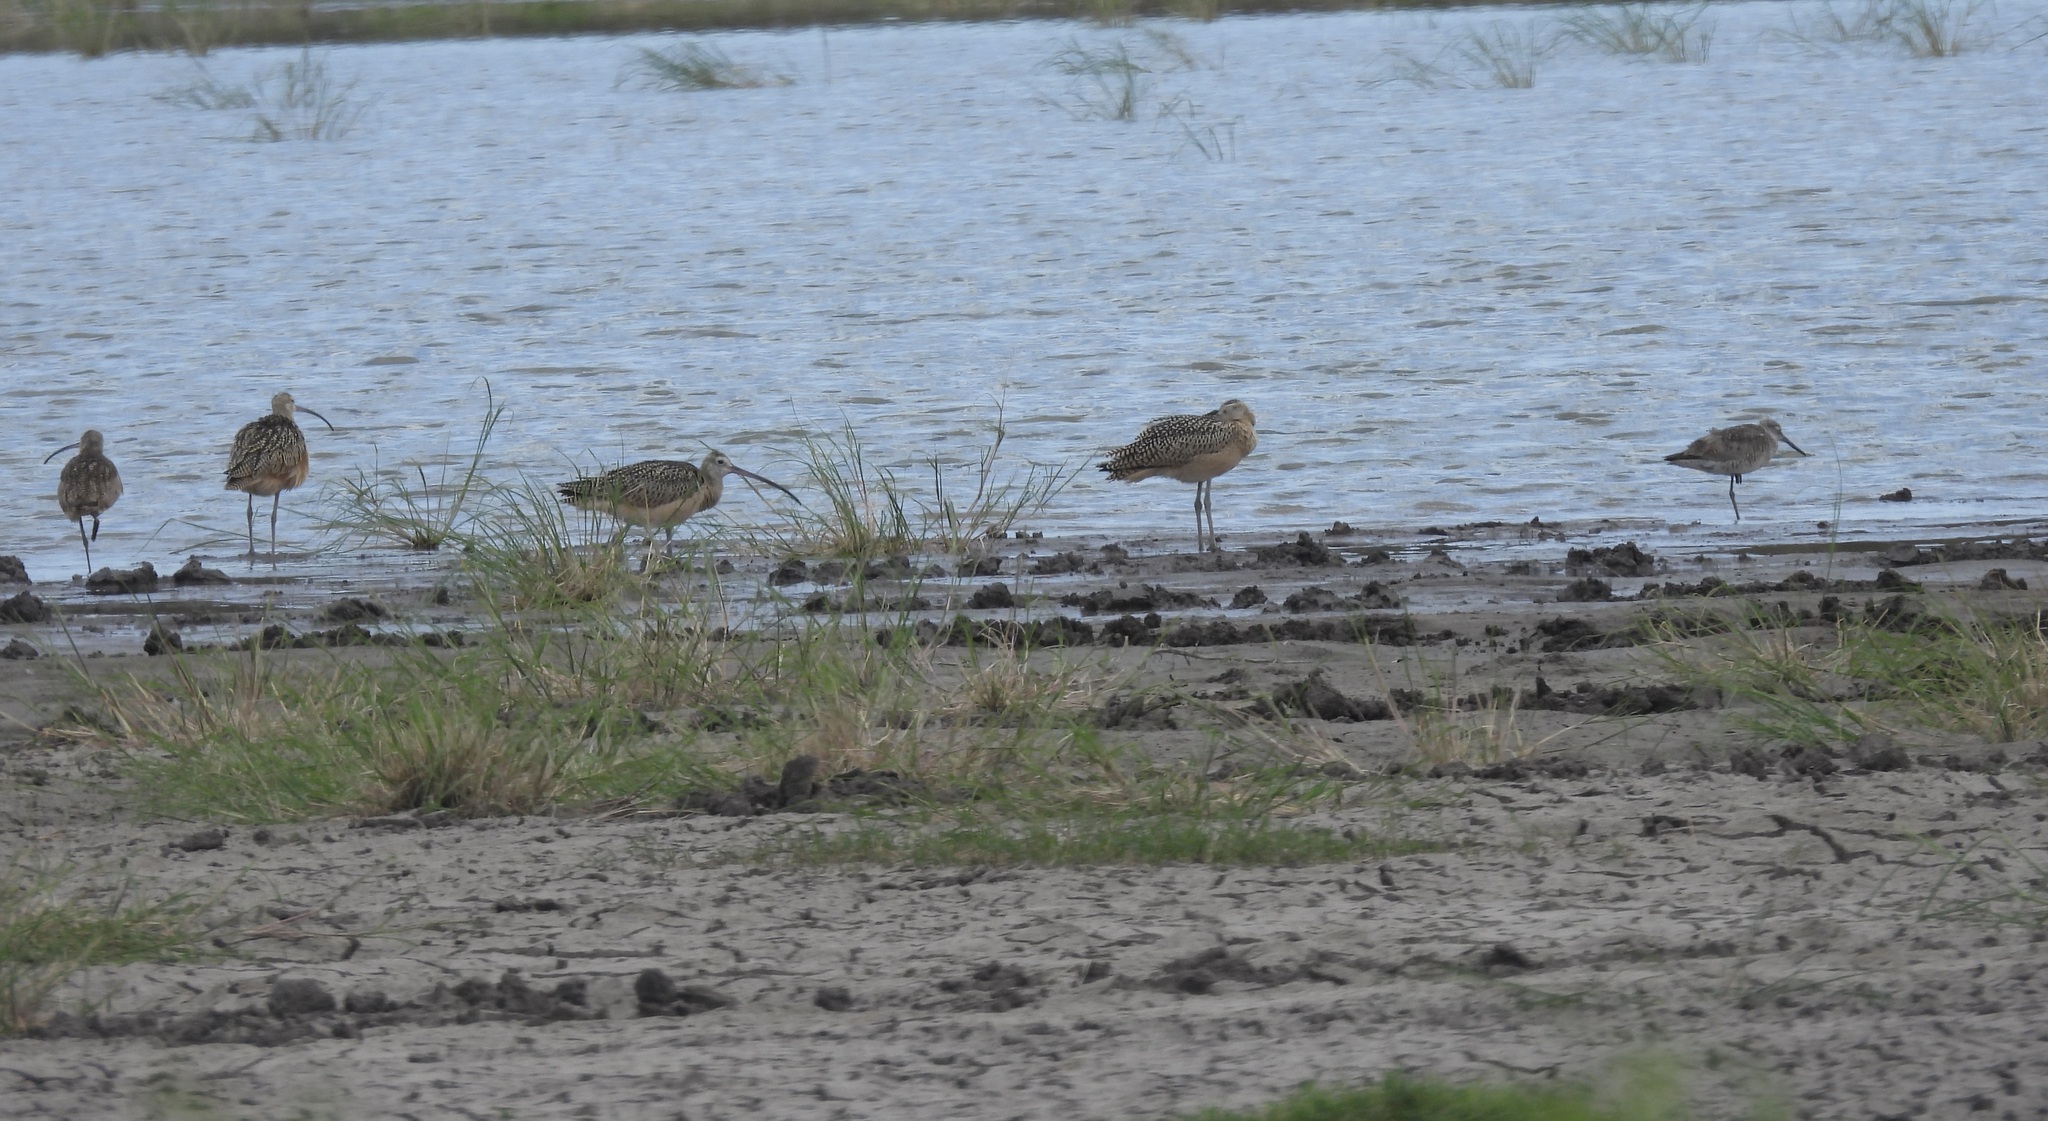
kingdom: Animalia
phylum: Chordata
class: Aves
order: Charadriiformes
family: Scolopacidae
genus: Numenius
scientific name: Numenius americanus
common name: Long-billed curlew
